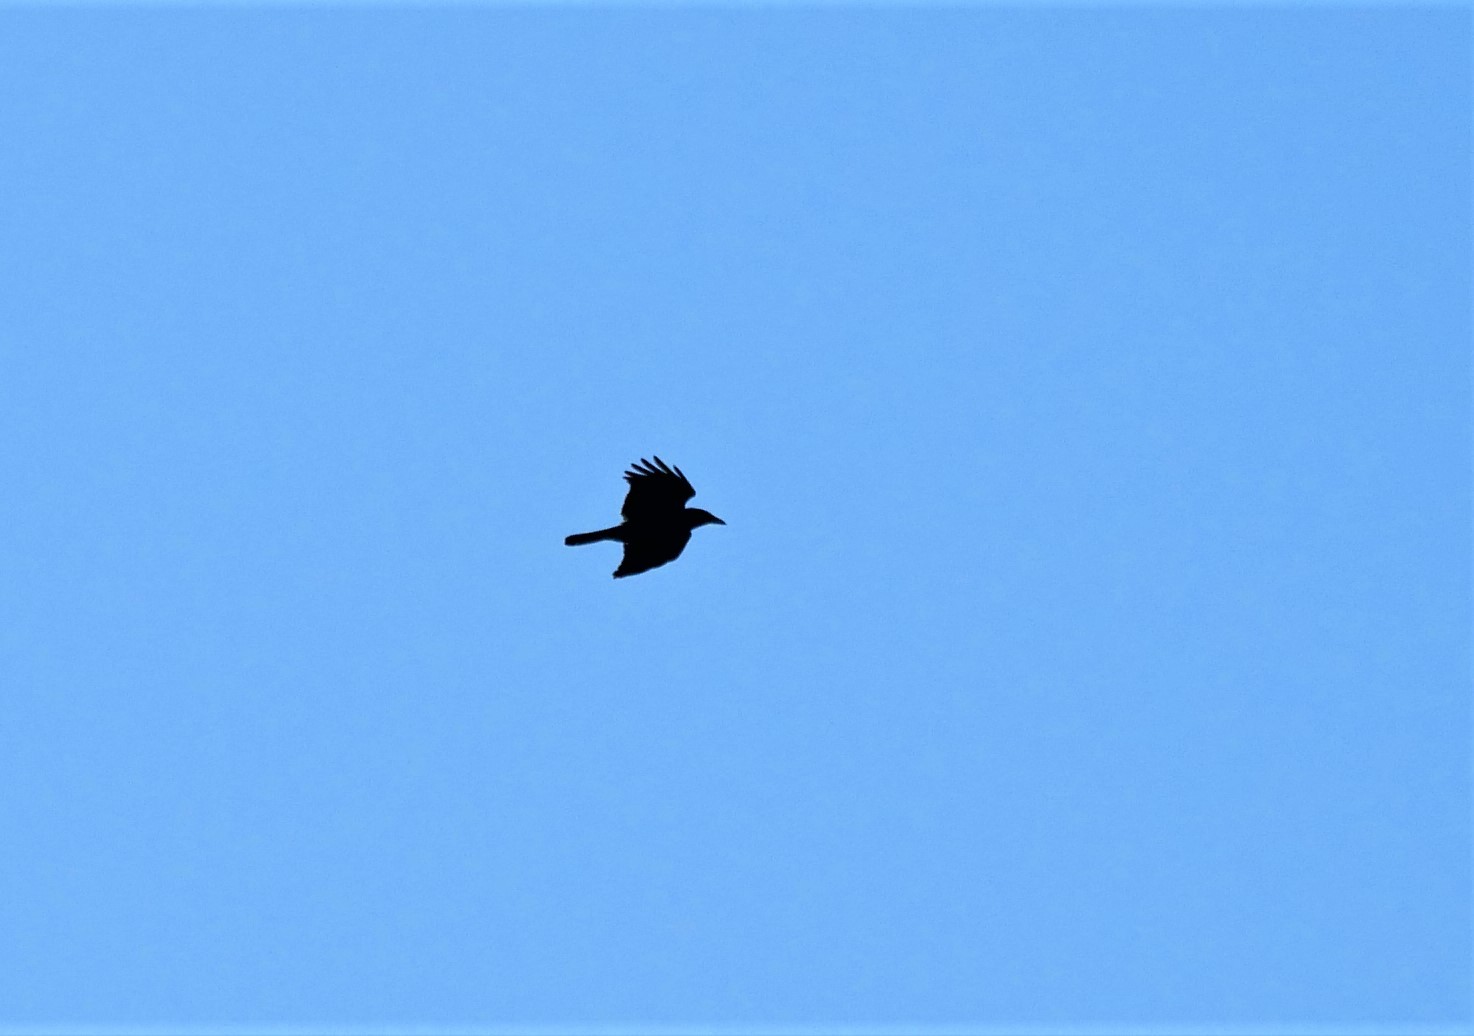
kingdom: Animalia
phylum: Chordata
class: Aves
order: Passeriformes
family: Corvidae
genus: Corvus
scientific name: Corvus corax
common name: Common raven
